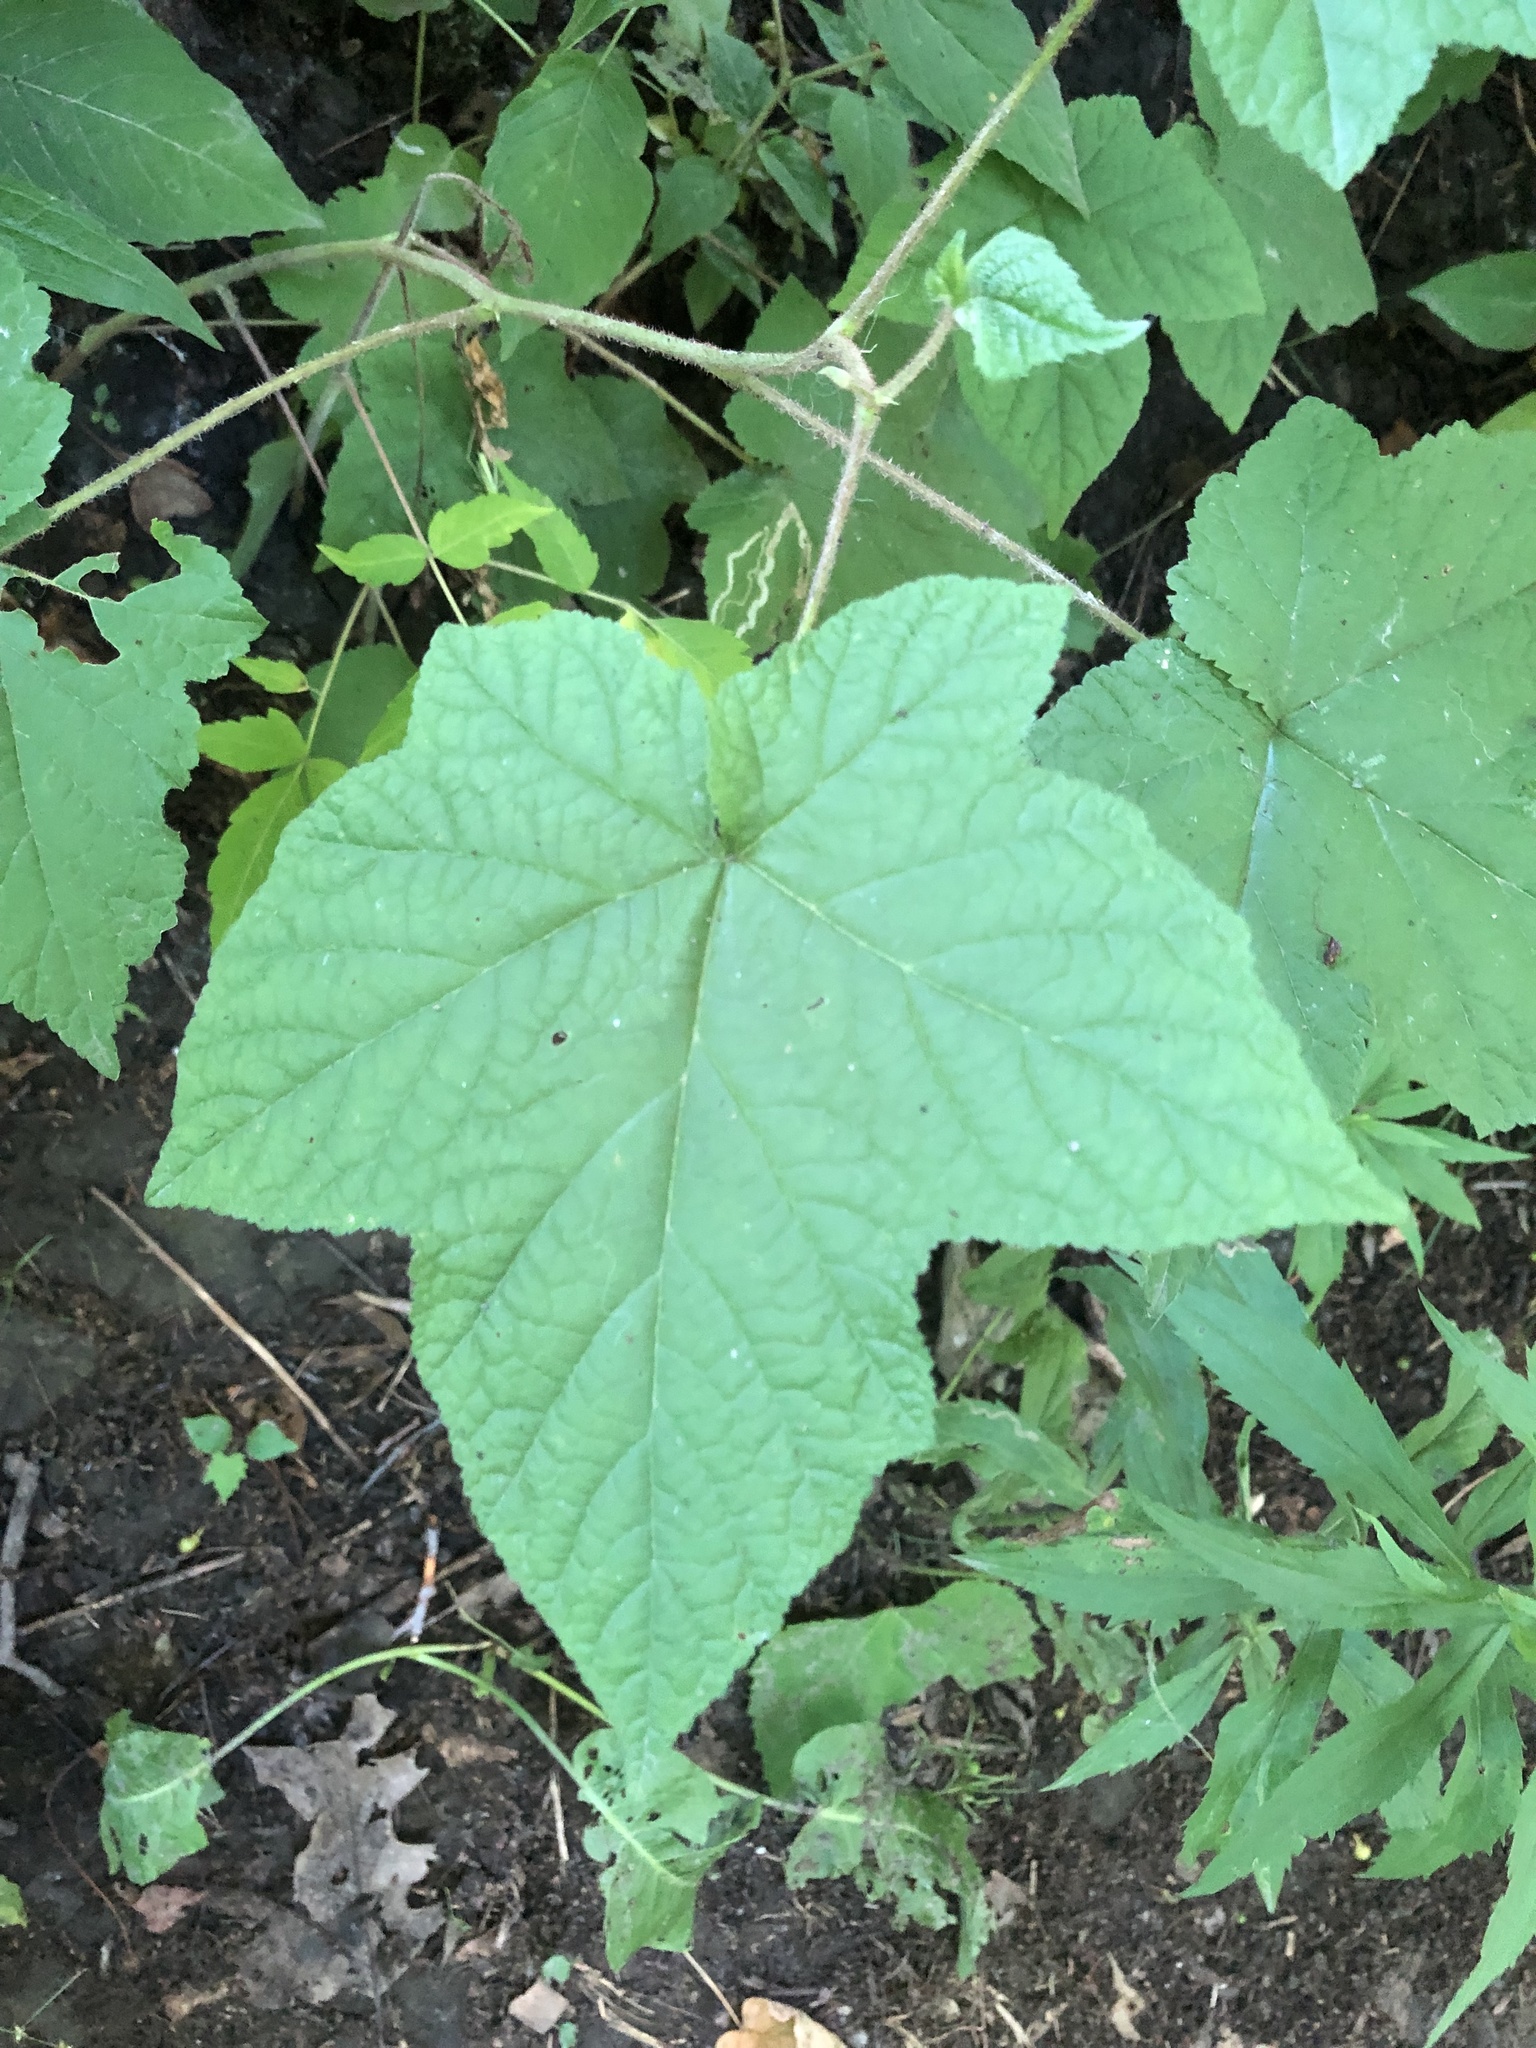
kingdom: Plantae
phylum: Tracheophyta
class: Magnoliopsida
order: Rosales
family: Rosaceae
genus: Rubus
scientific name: Rubus odoratus
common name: Purple-flowered raspberry
